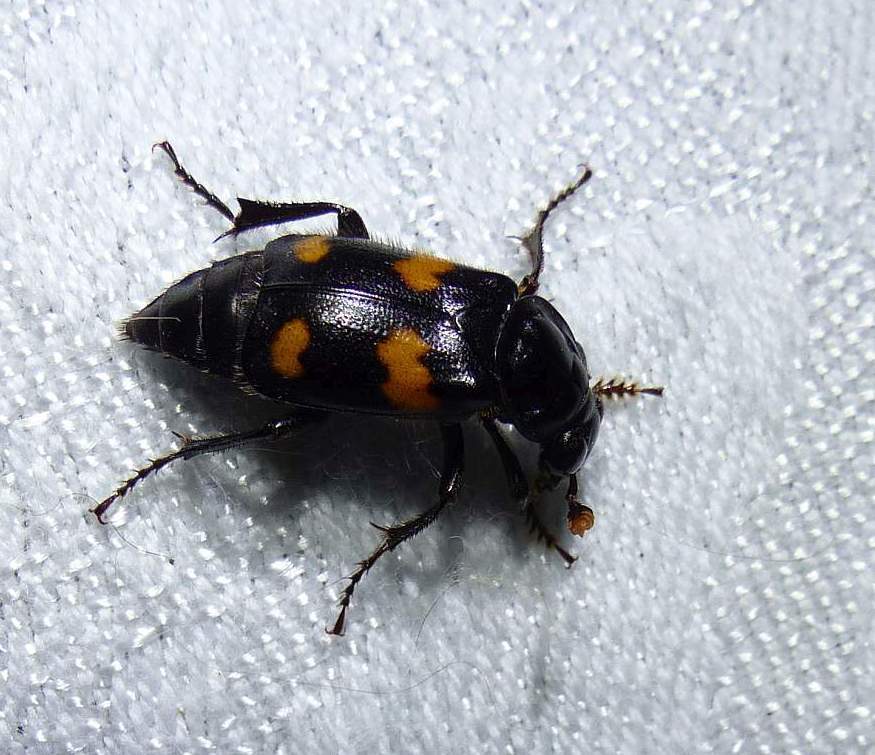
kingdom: Animalia
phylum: Arthropoda
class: Insecta
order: Coleoptera
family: Staphylinidae
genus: Nicrophorus
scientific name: Nicrophorus orbicollis
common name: Roundneck sexton beetle
